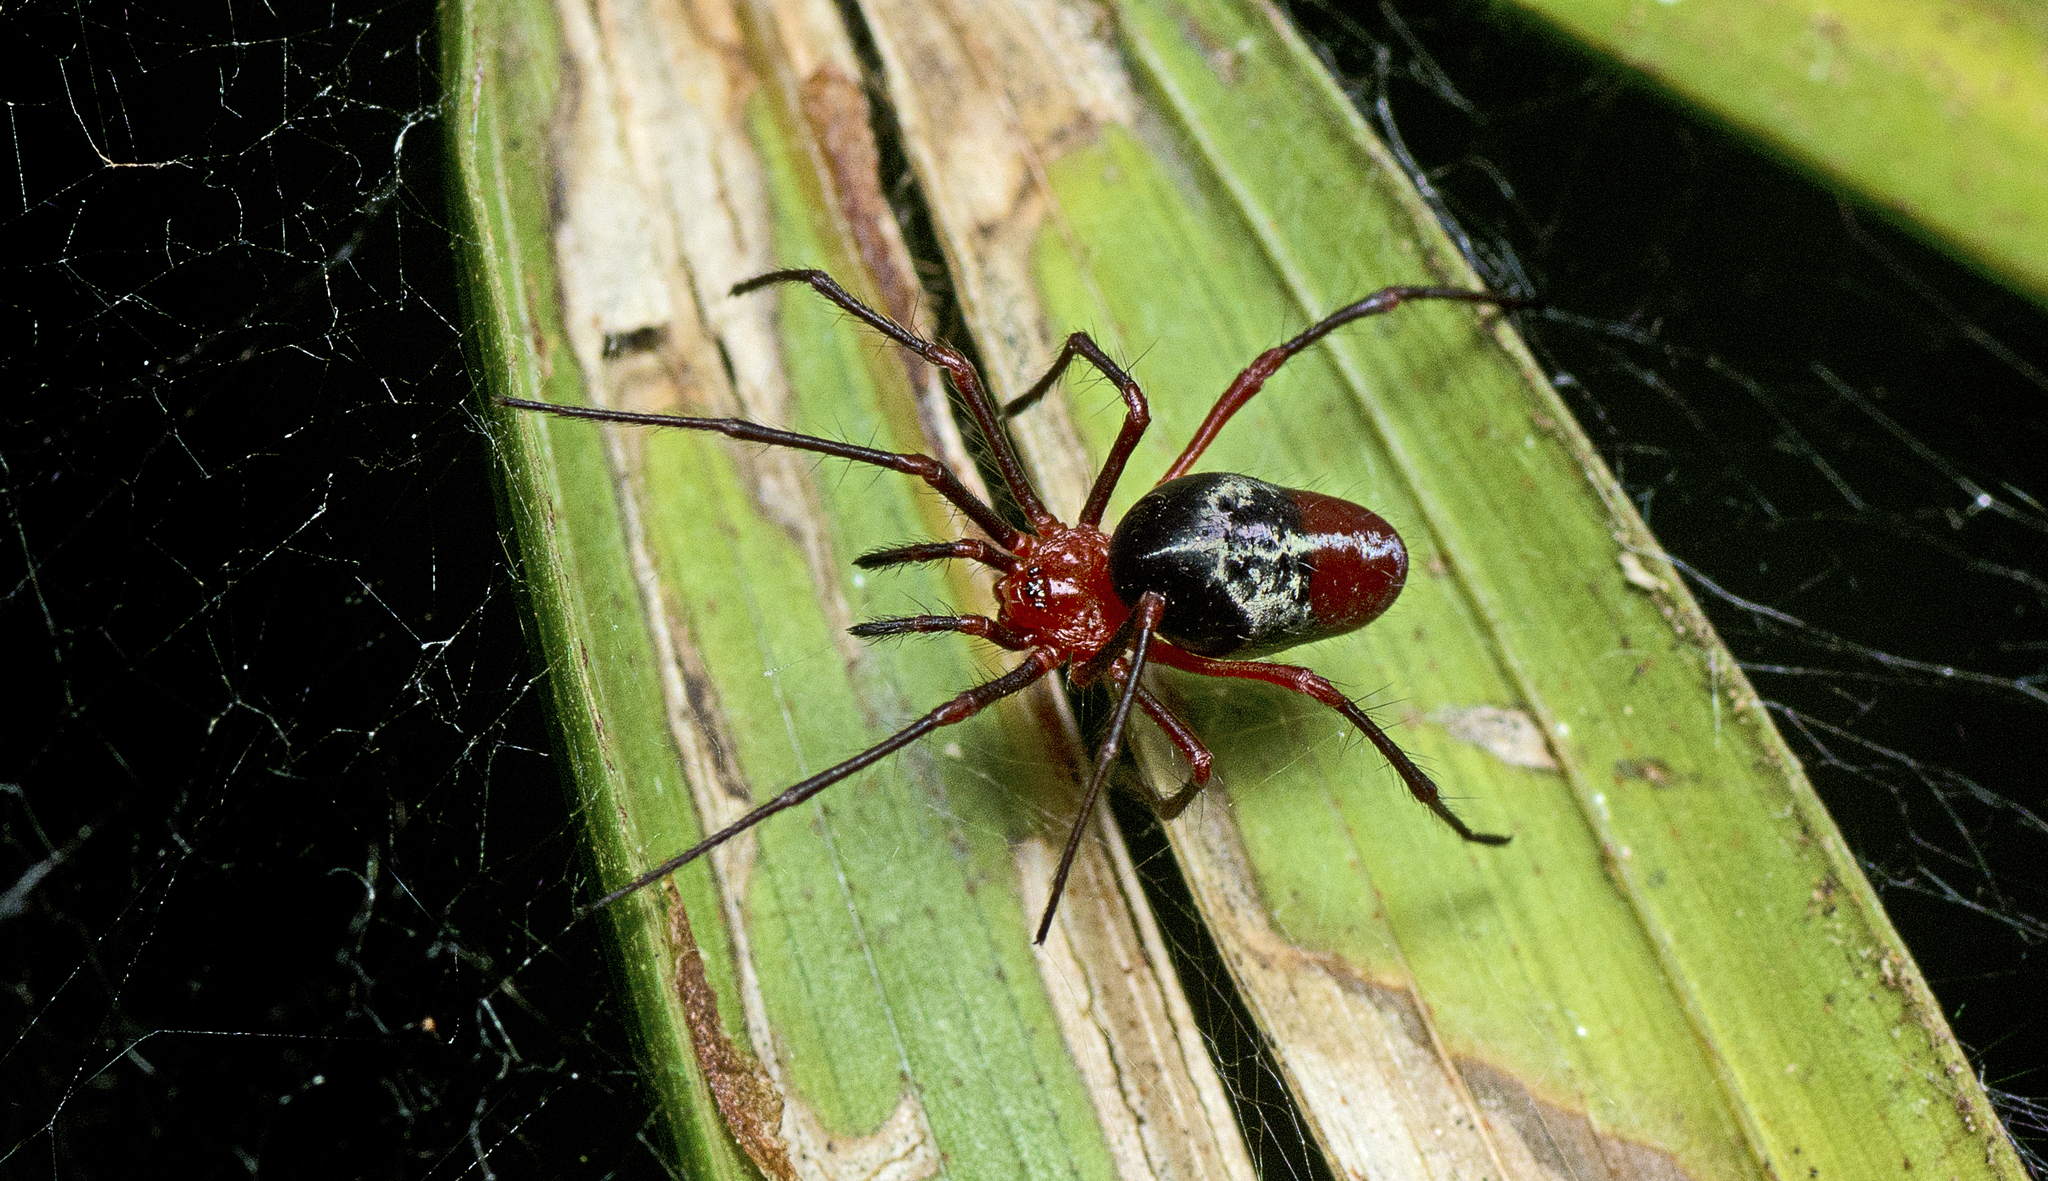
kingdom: Animalia
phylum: Arthropoda
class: Arachnida
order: Araneae
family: Nicodamidae
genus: Dimidamus
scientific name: Dimidamus dimidiatus
